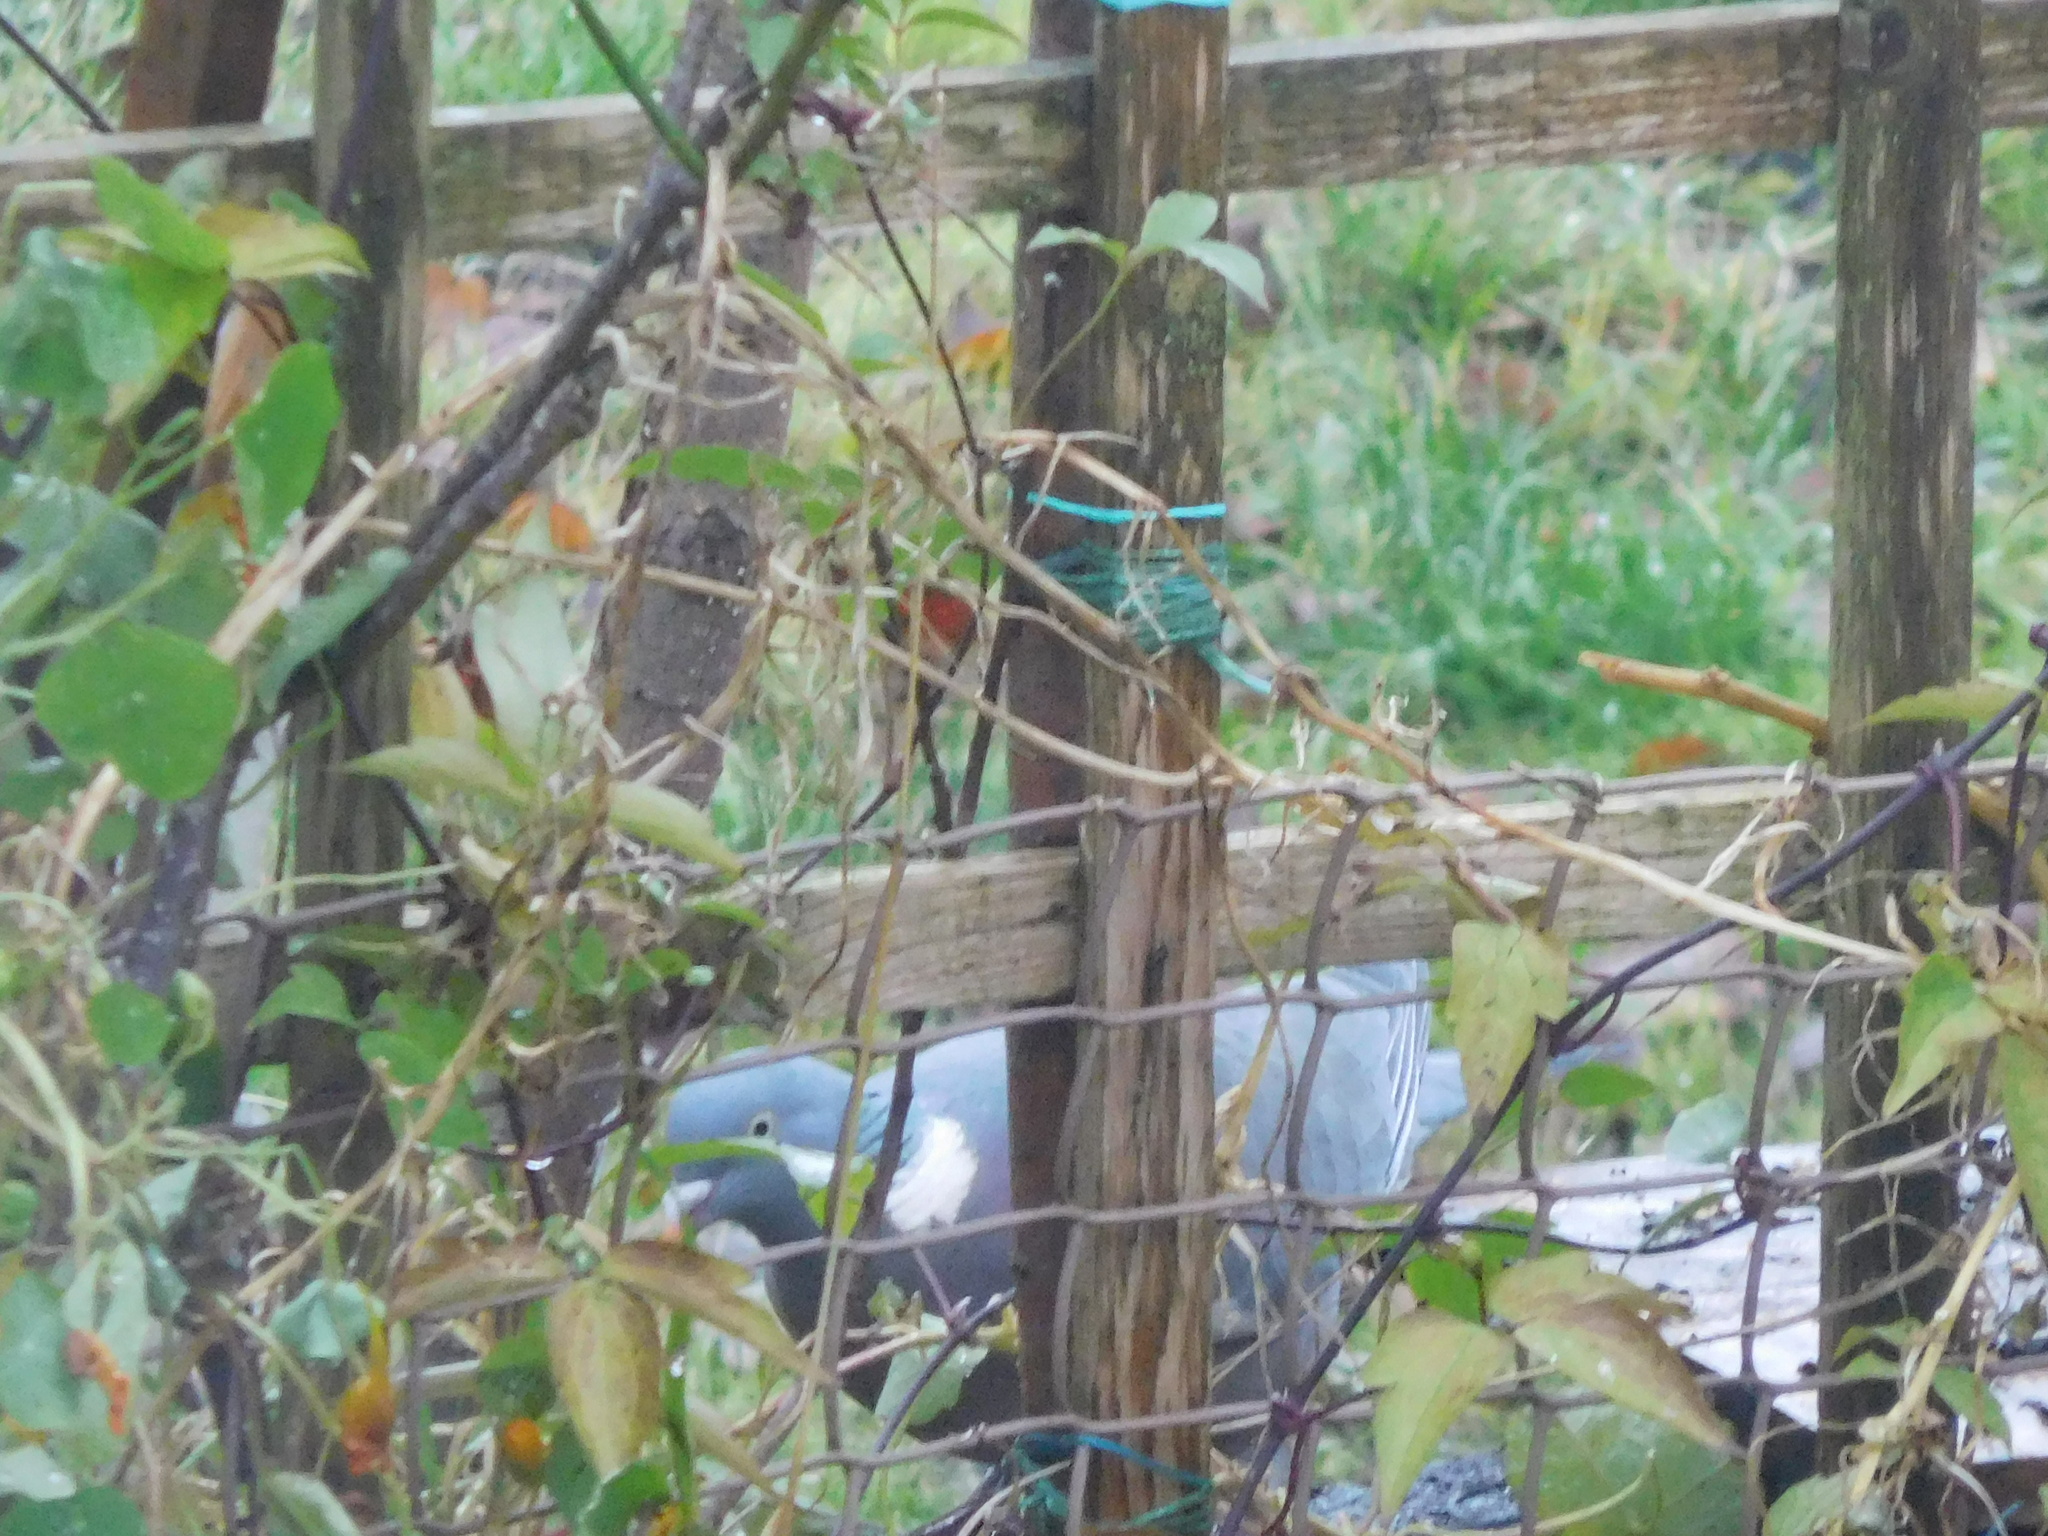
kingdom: Animalia
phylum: Chordata
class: Aves
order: Columbiformes
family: Columbidae
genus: Columba
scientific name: Columba palumbus
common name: Common wood pigeon
